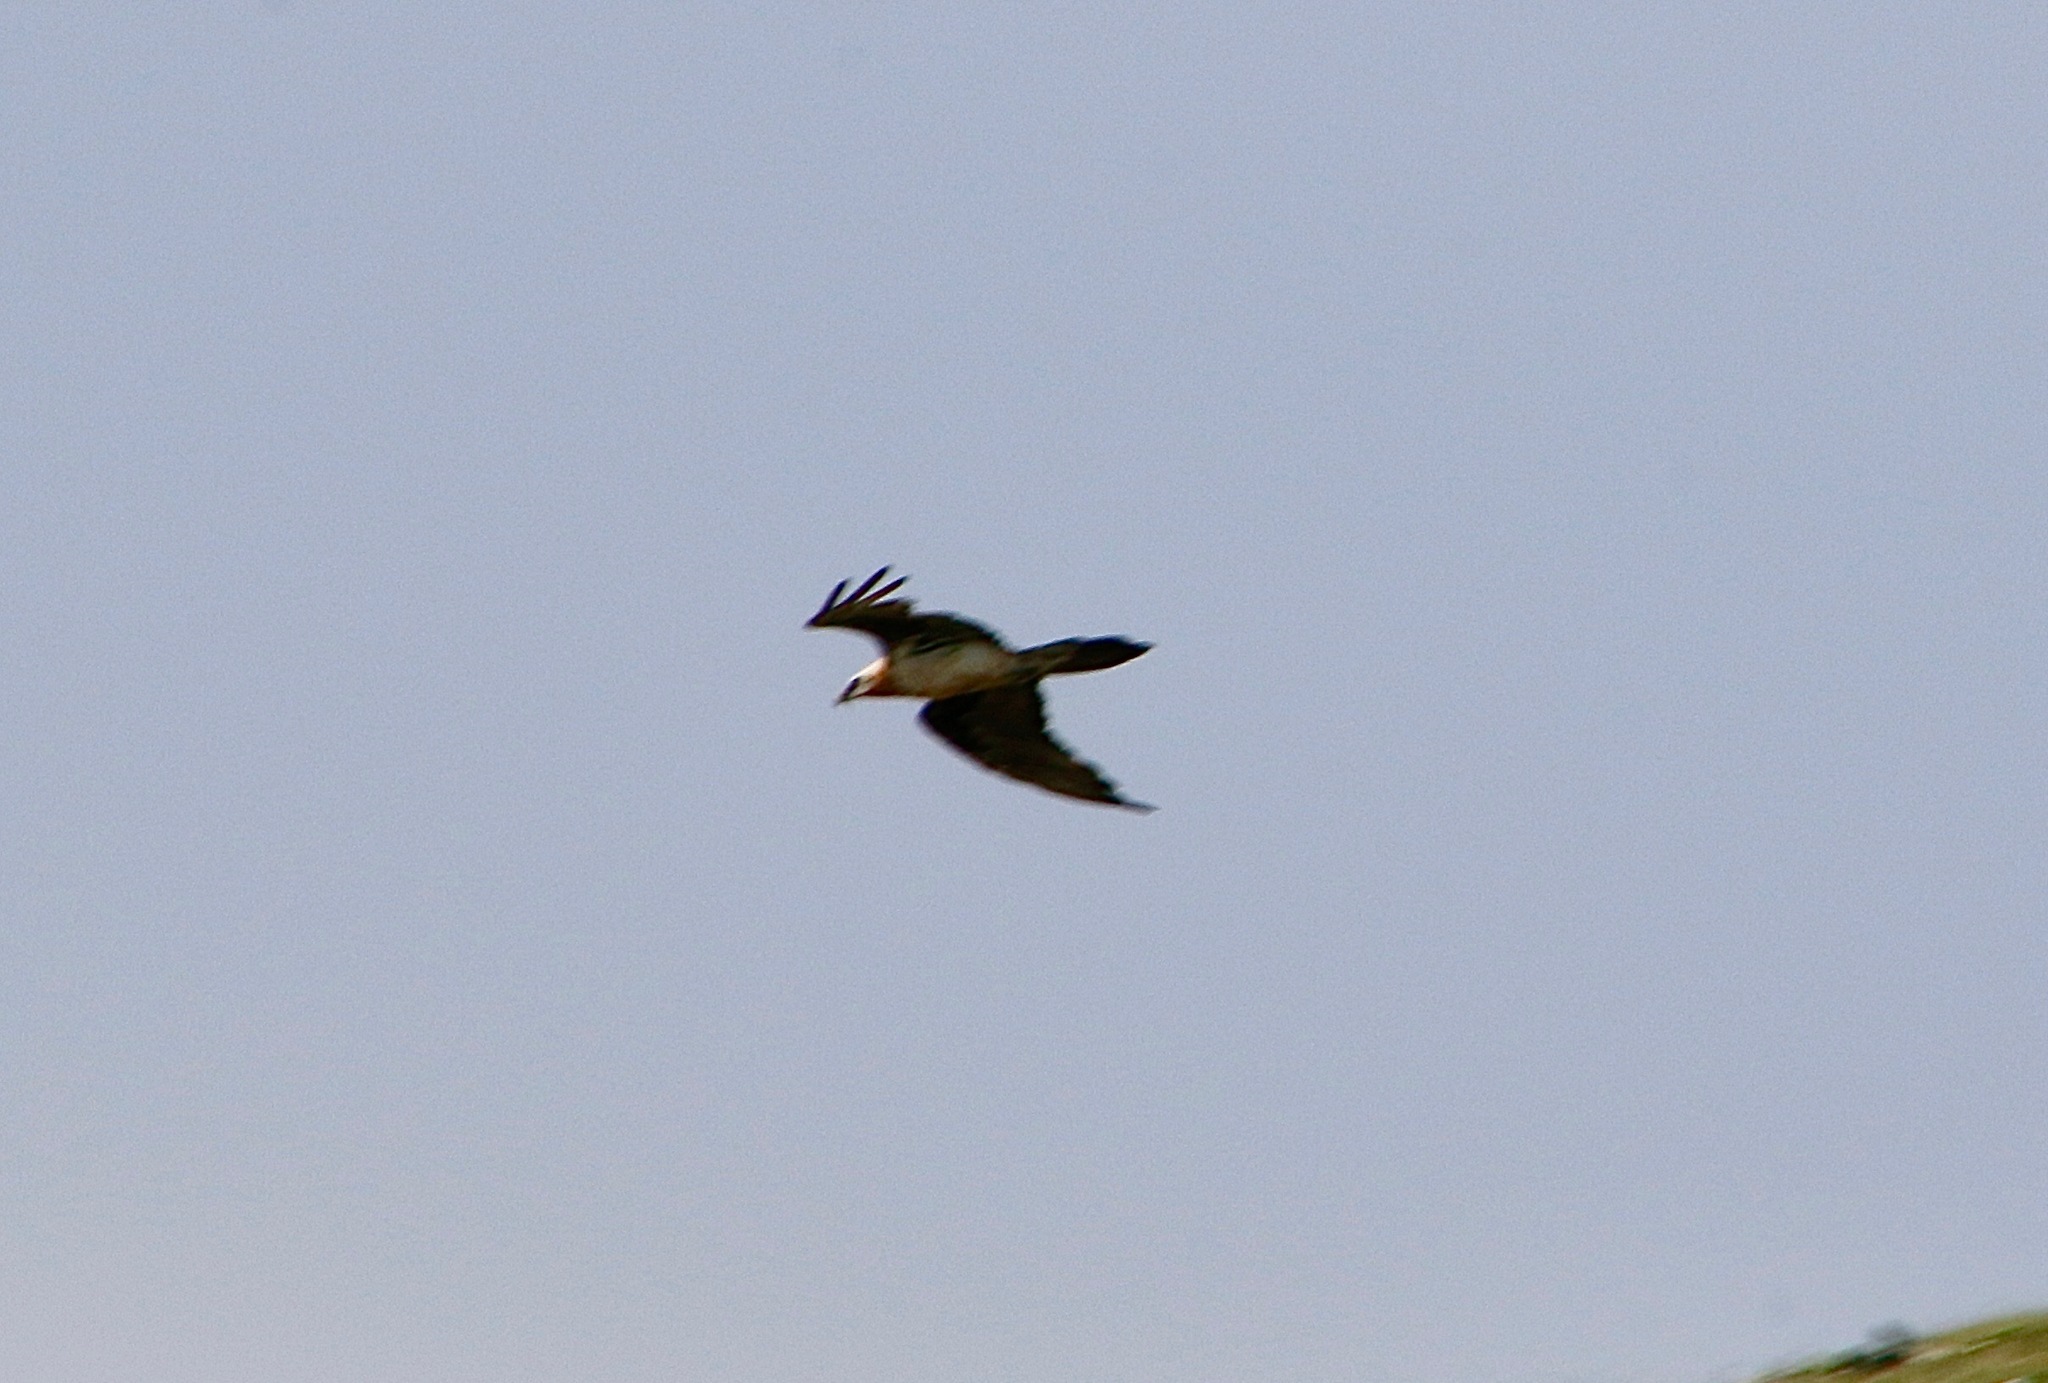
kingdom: Animalia
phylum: Chordata
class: Aves
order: Accipitriformes
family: Accipitridae
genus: Gypaetus
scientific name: Gypaetus barbatus
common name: Bearded vulture
